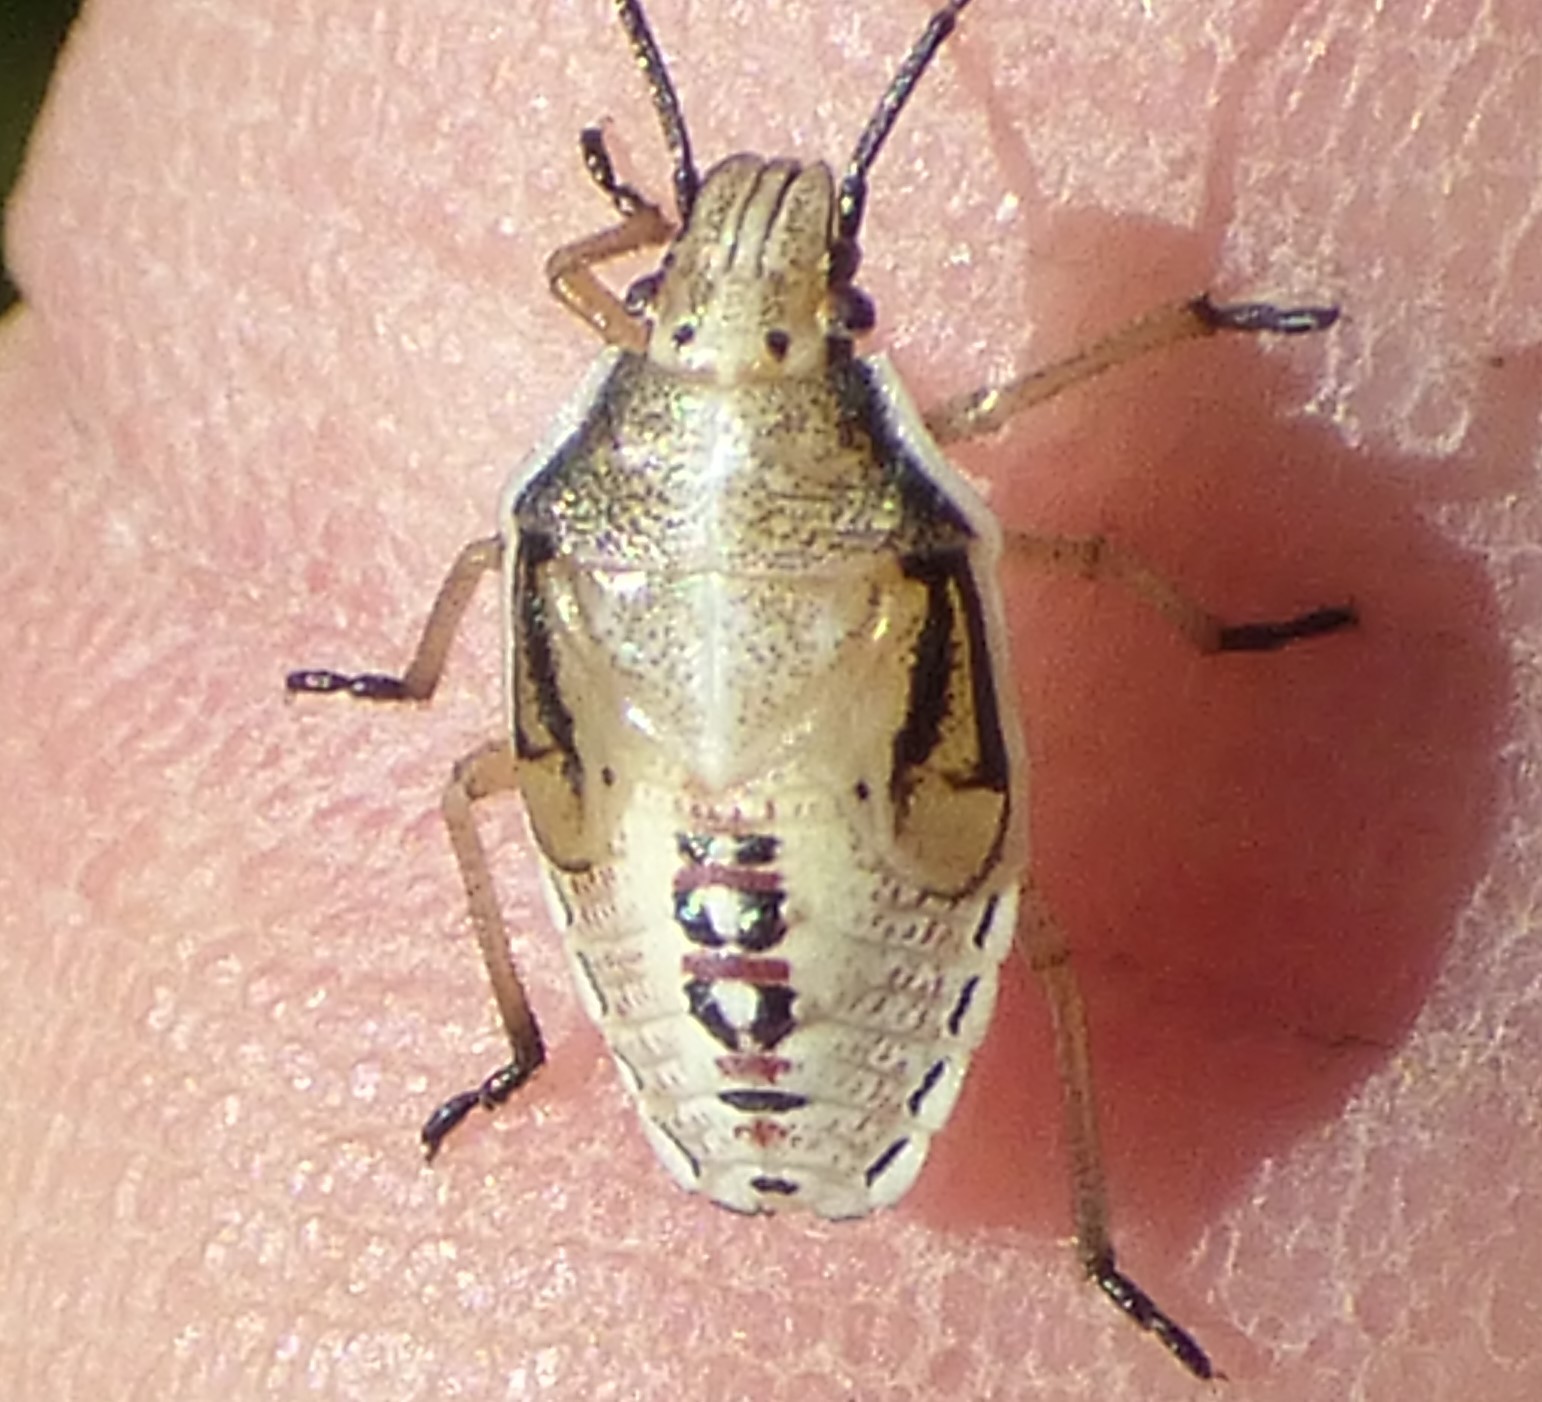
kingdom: Animalia
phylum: Arthropoda
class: Insecta
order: Hemiptera
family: Pentatomidae
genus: Oebalus
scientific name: Oebalus pugnax
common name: Rice stink bug
